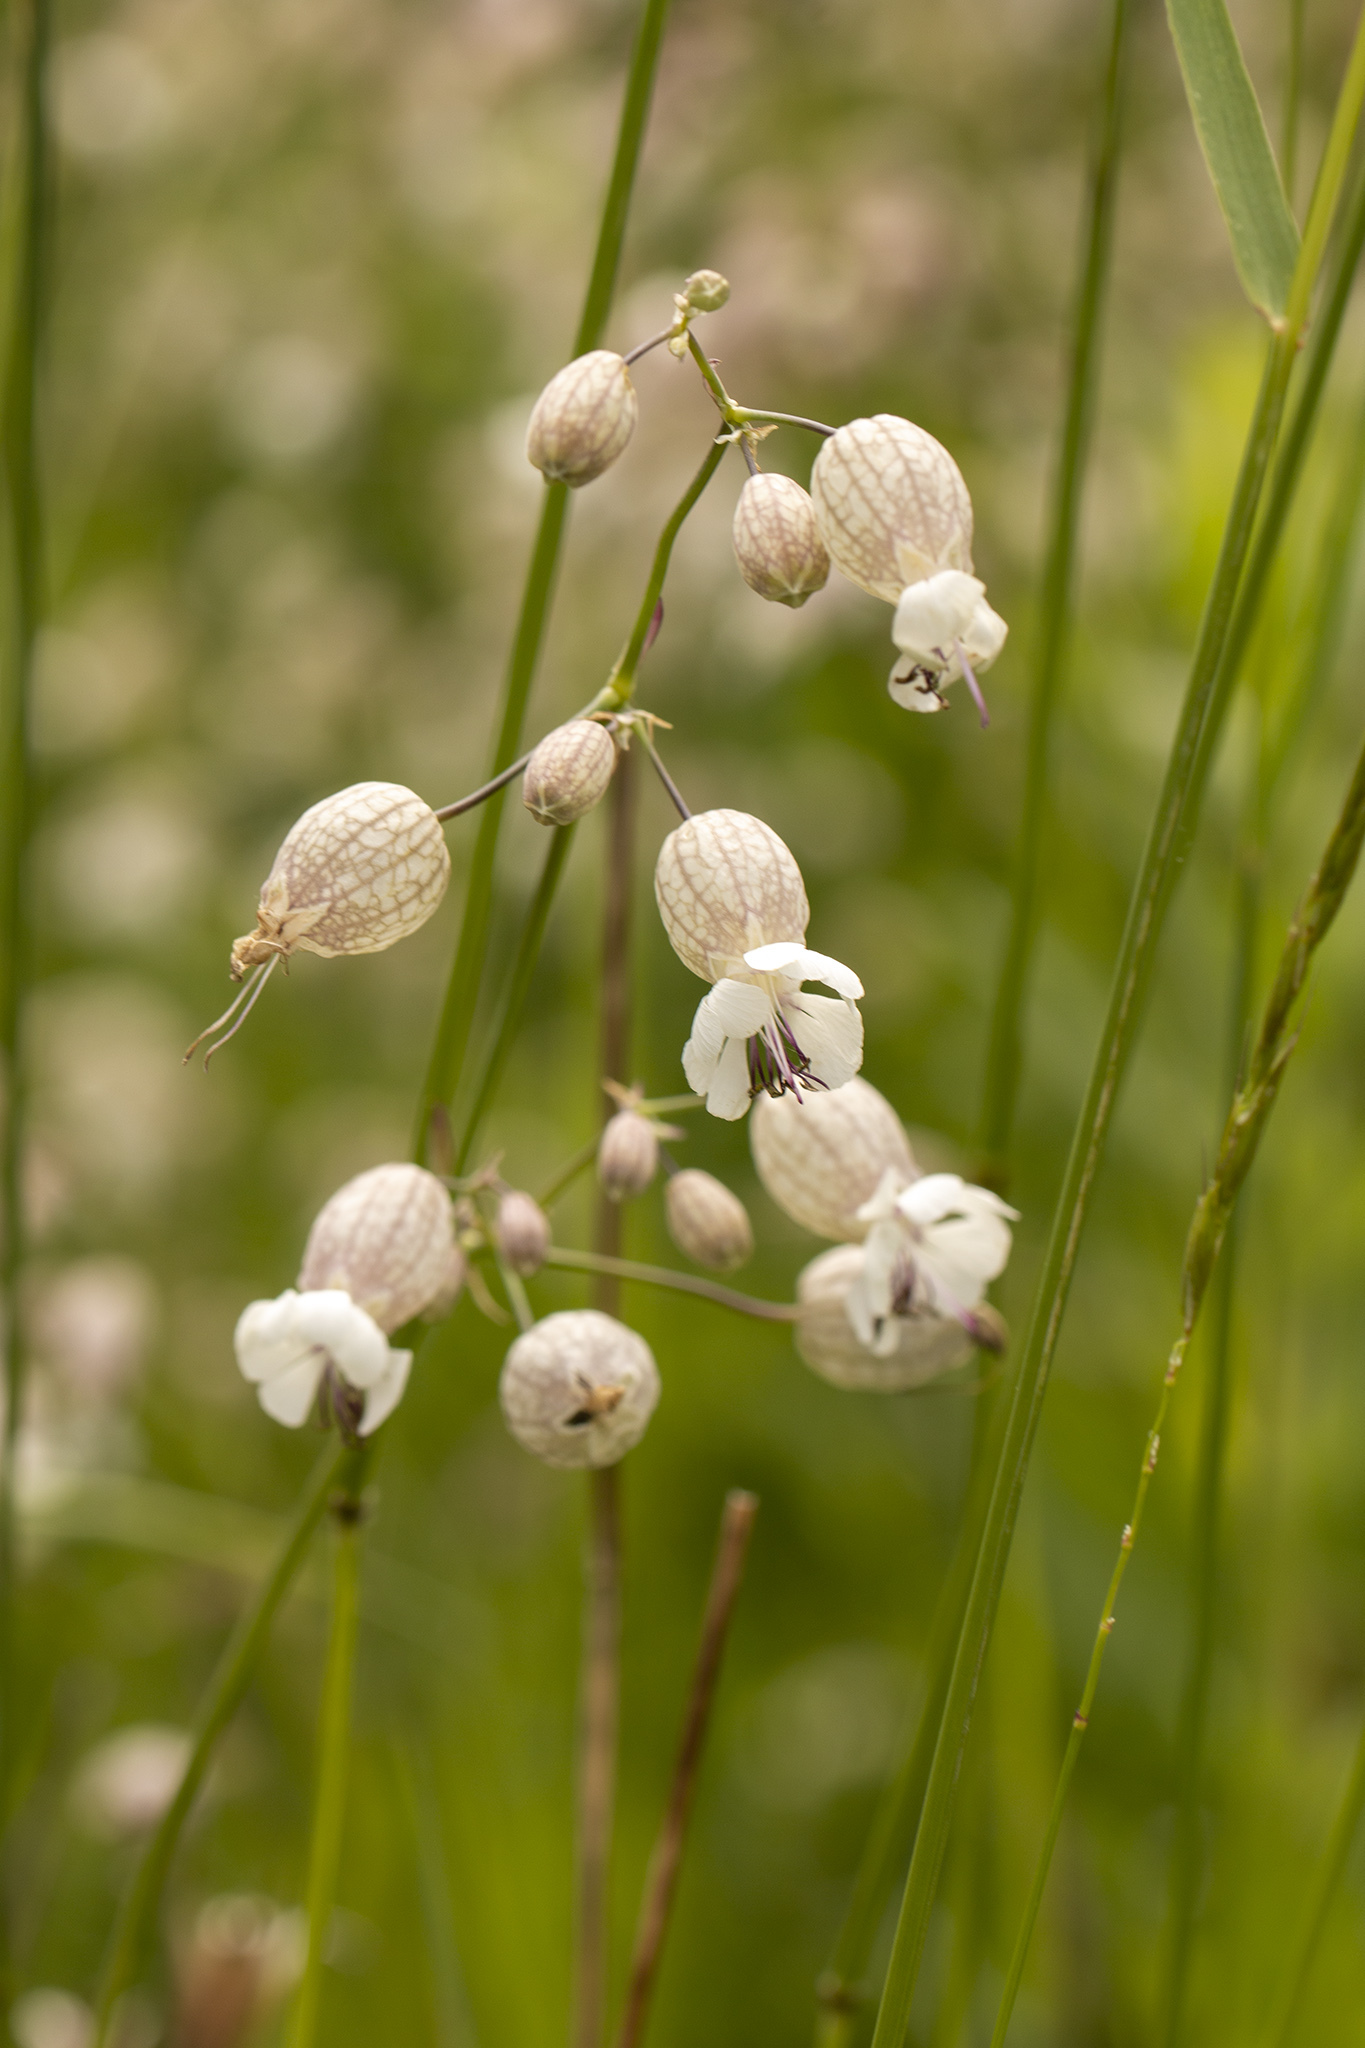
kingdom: Plantae
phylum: Tracheophyta
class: Magnoliopsida
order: Caryophyllales
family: Caryophyllaceae
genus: Silene
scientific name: Silene vulgaris
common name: Bladder campion
